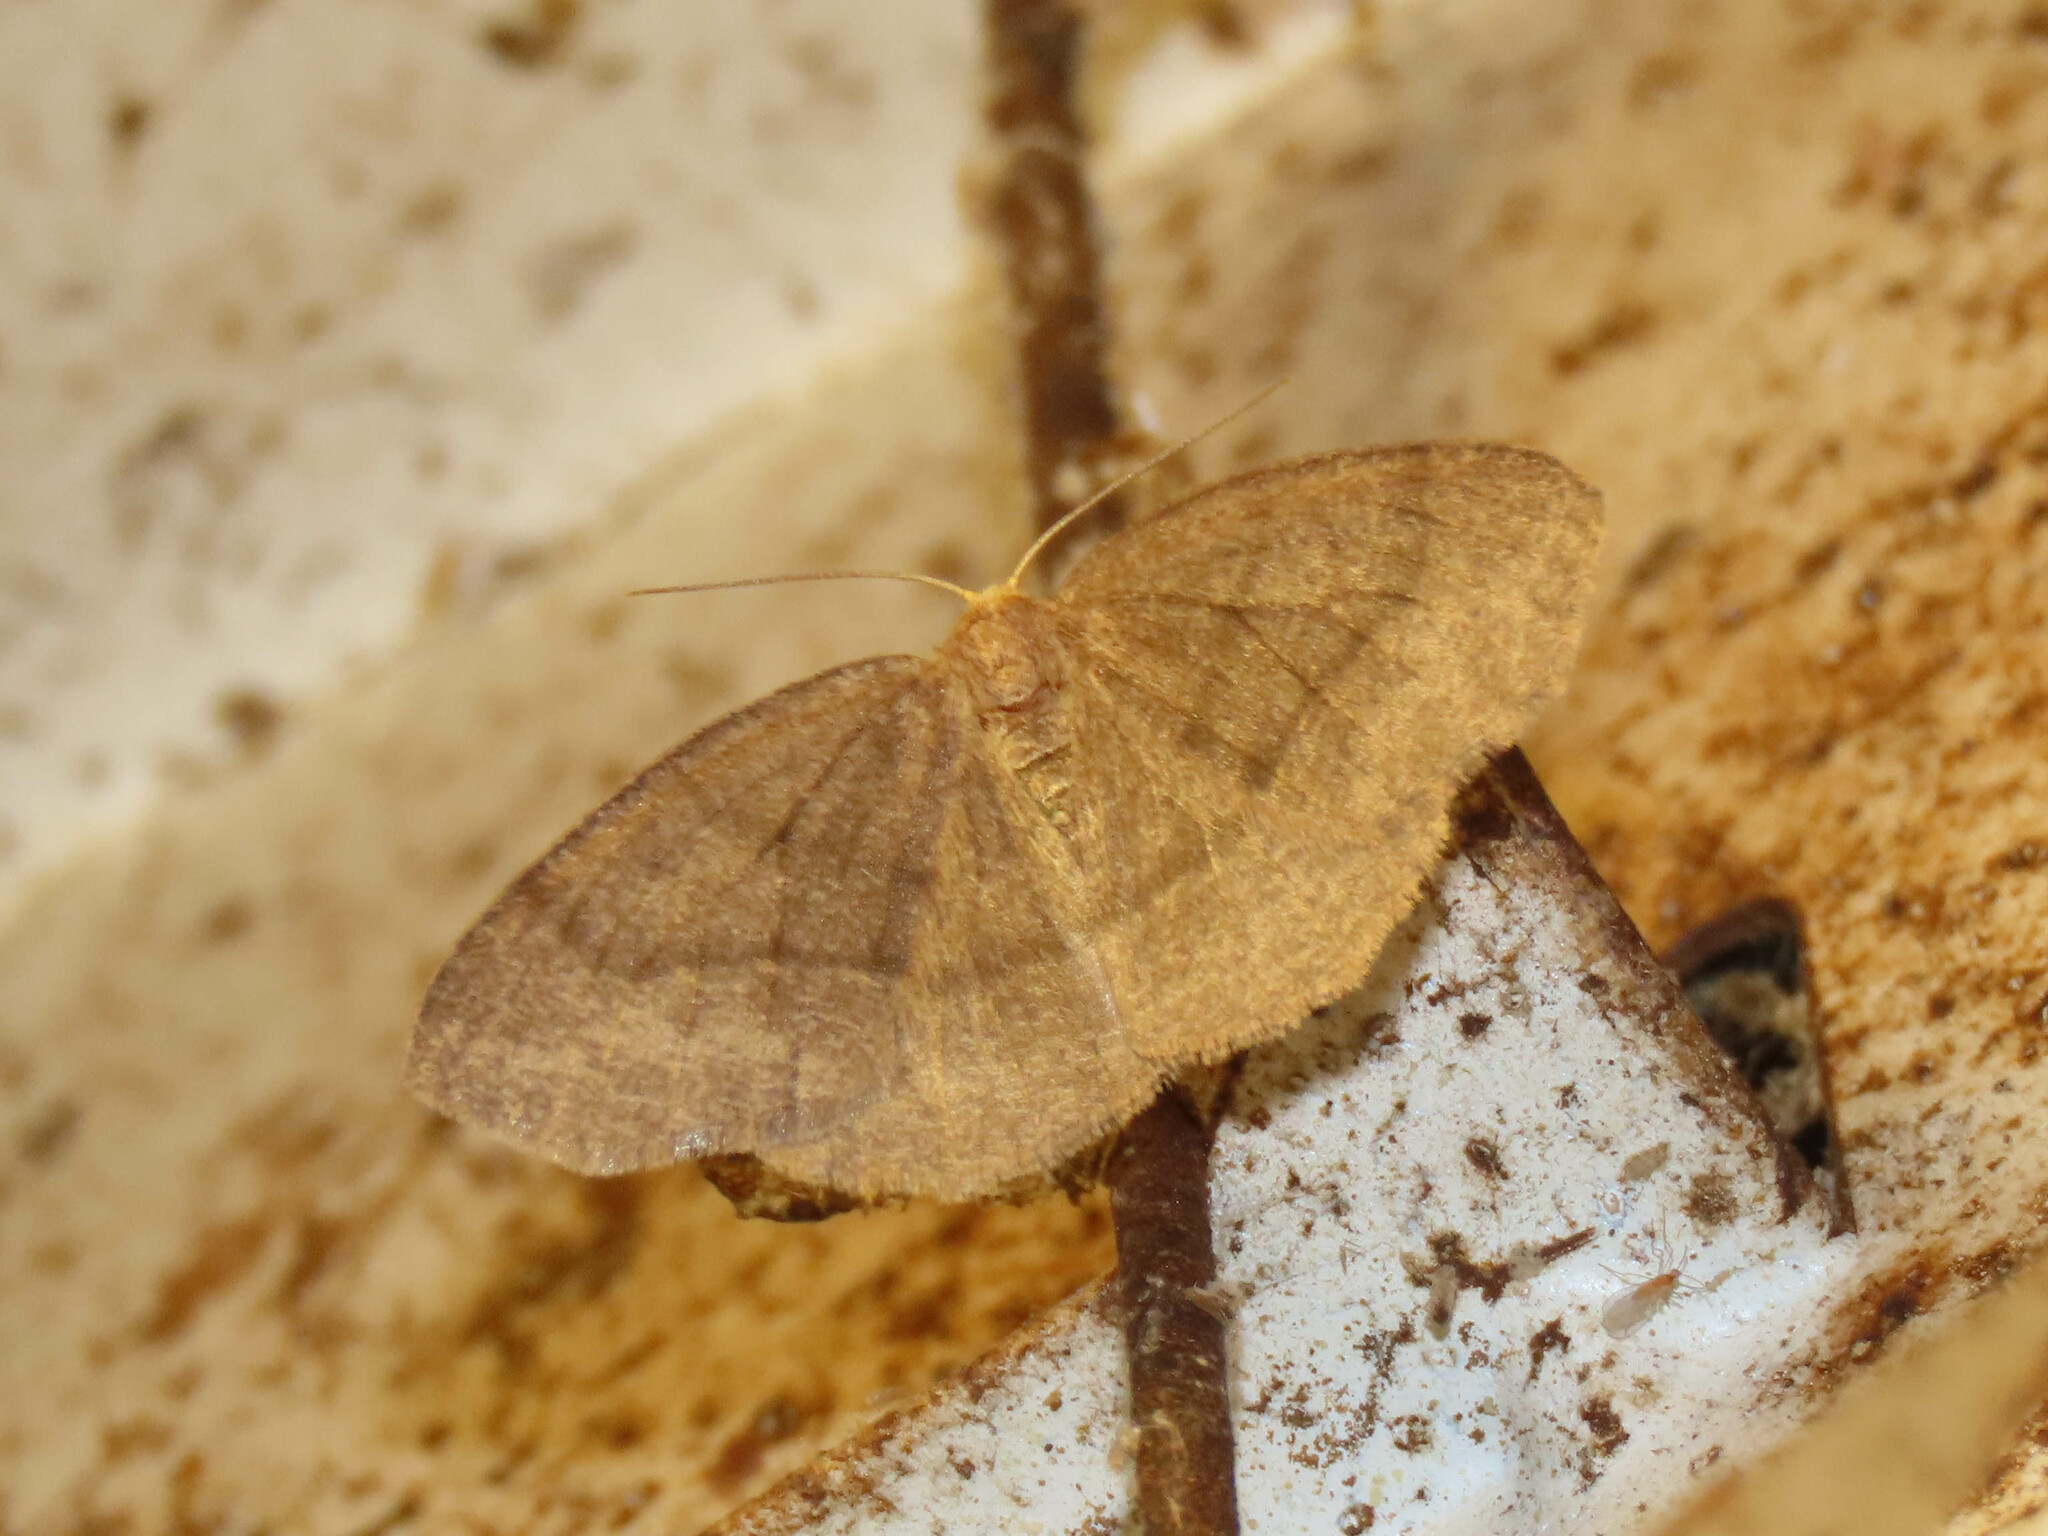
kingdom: Animalia
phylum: Arthropoda
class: Insecta
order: Lepidoptera
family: Geometridae
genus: Lambdina
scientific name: Lambdina fervidaria
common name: Curve-lined looper moth
